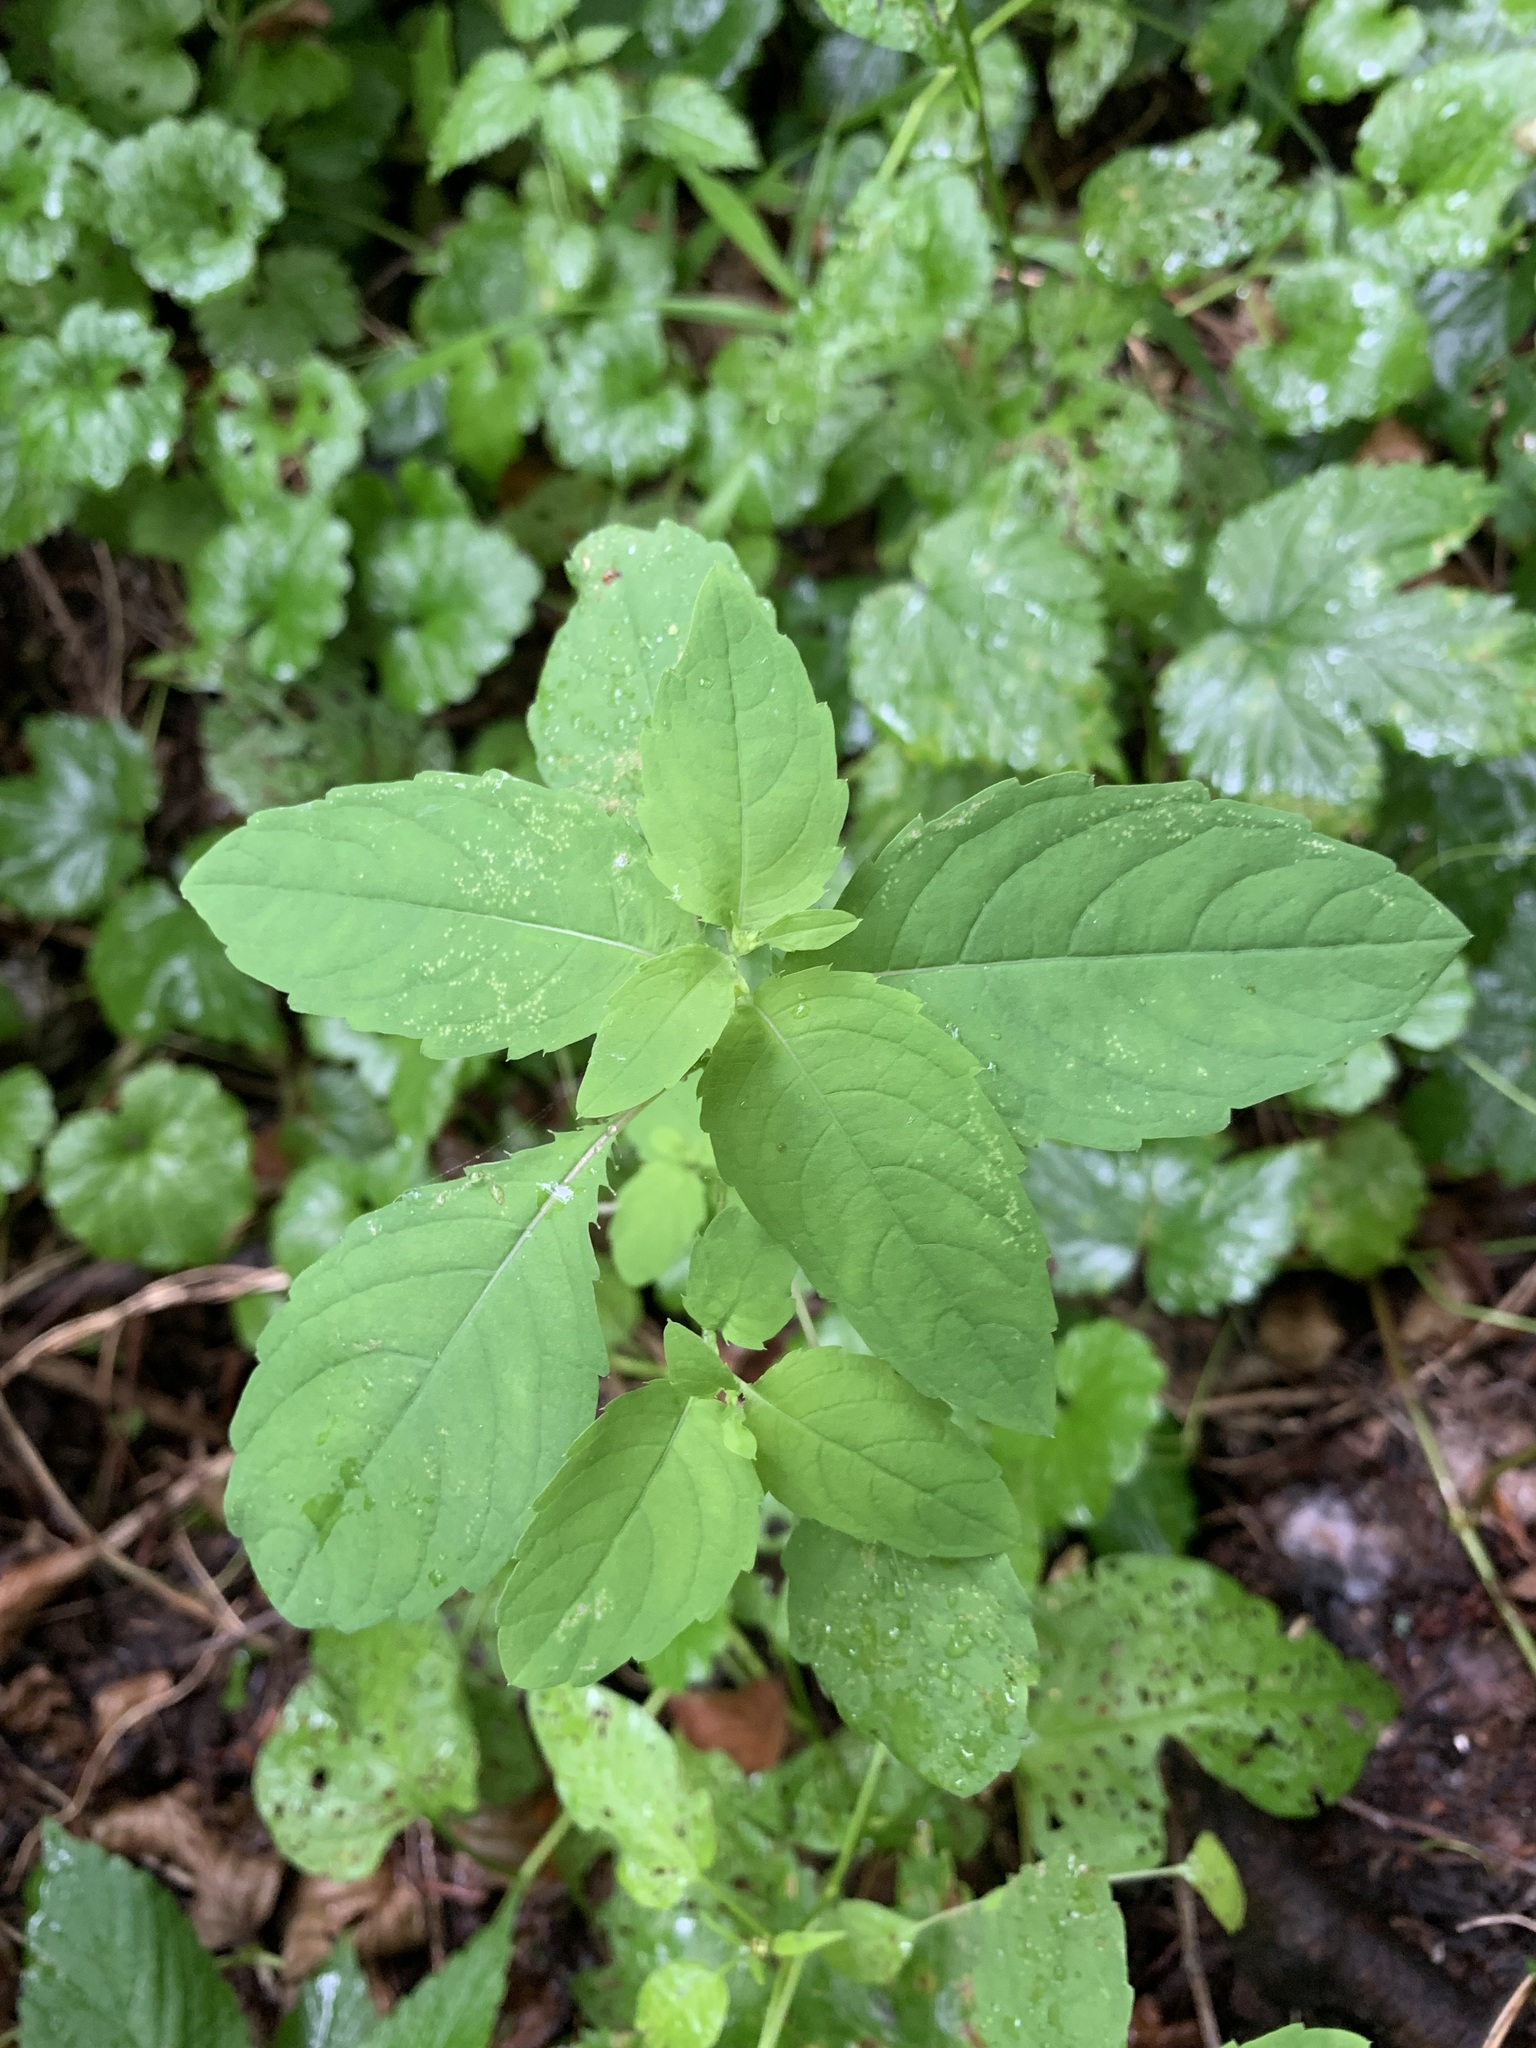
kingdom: Plantae
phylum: Tracheophyta
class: Magnoliopsida
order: Ericales
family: Balsaminaceae
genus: Impatiens
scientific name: Impatiens noli-tangere
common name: Touch-me-not balsam
